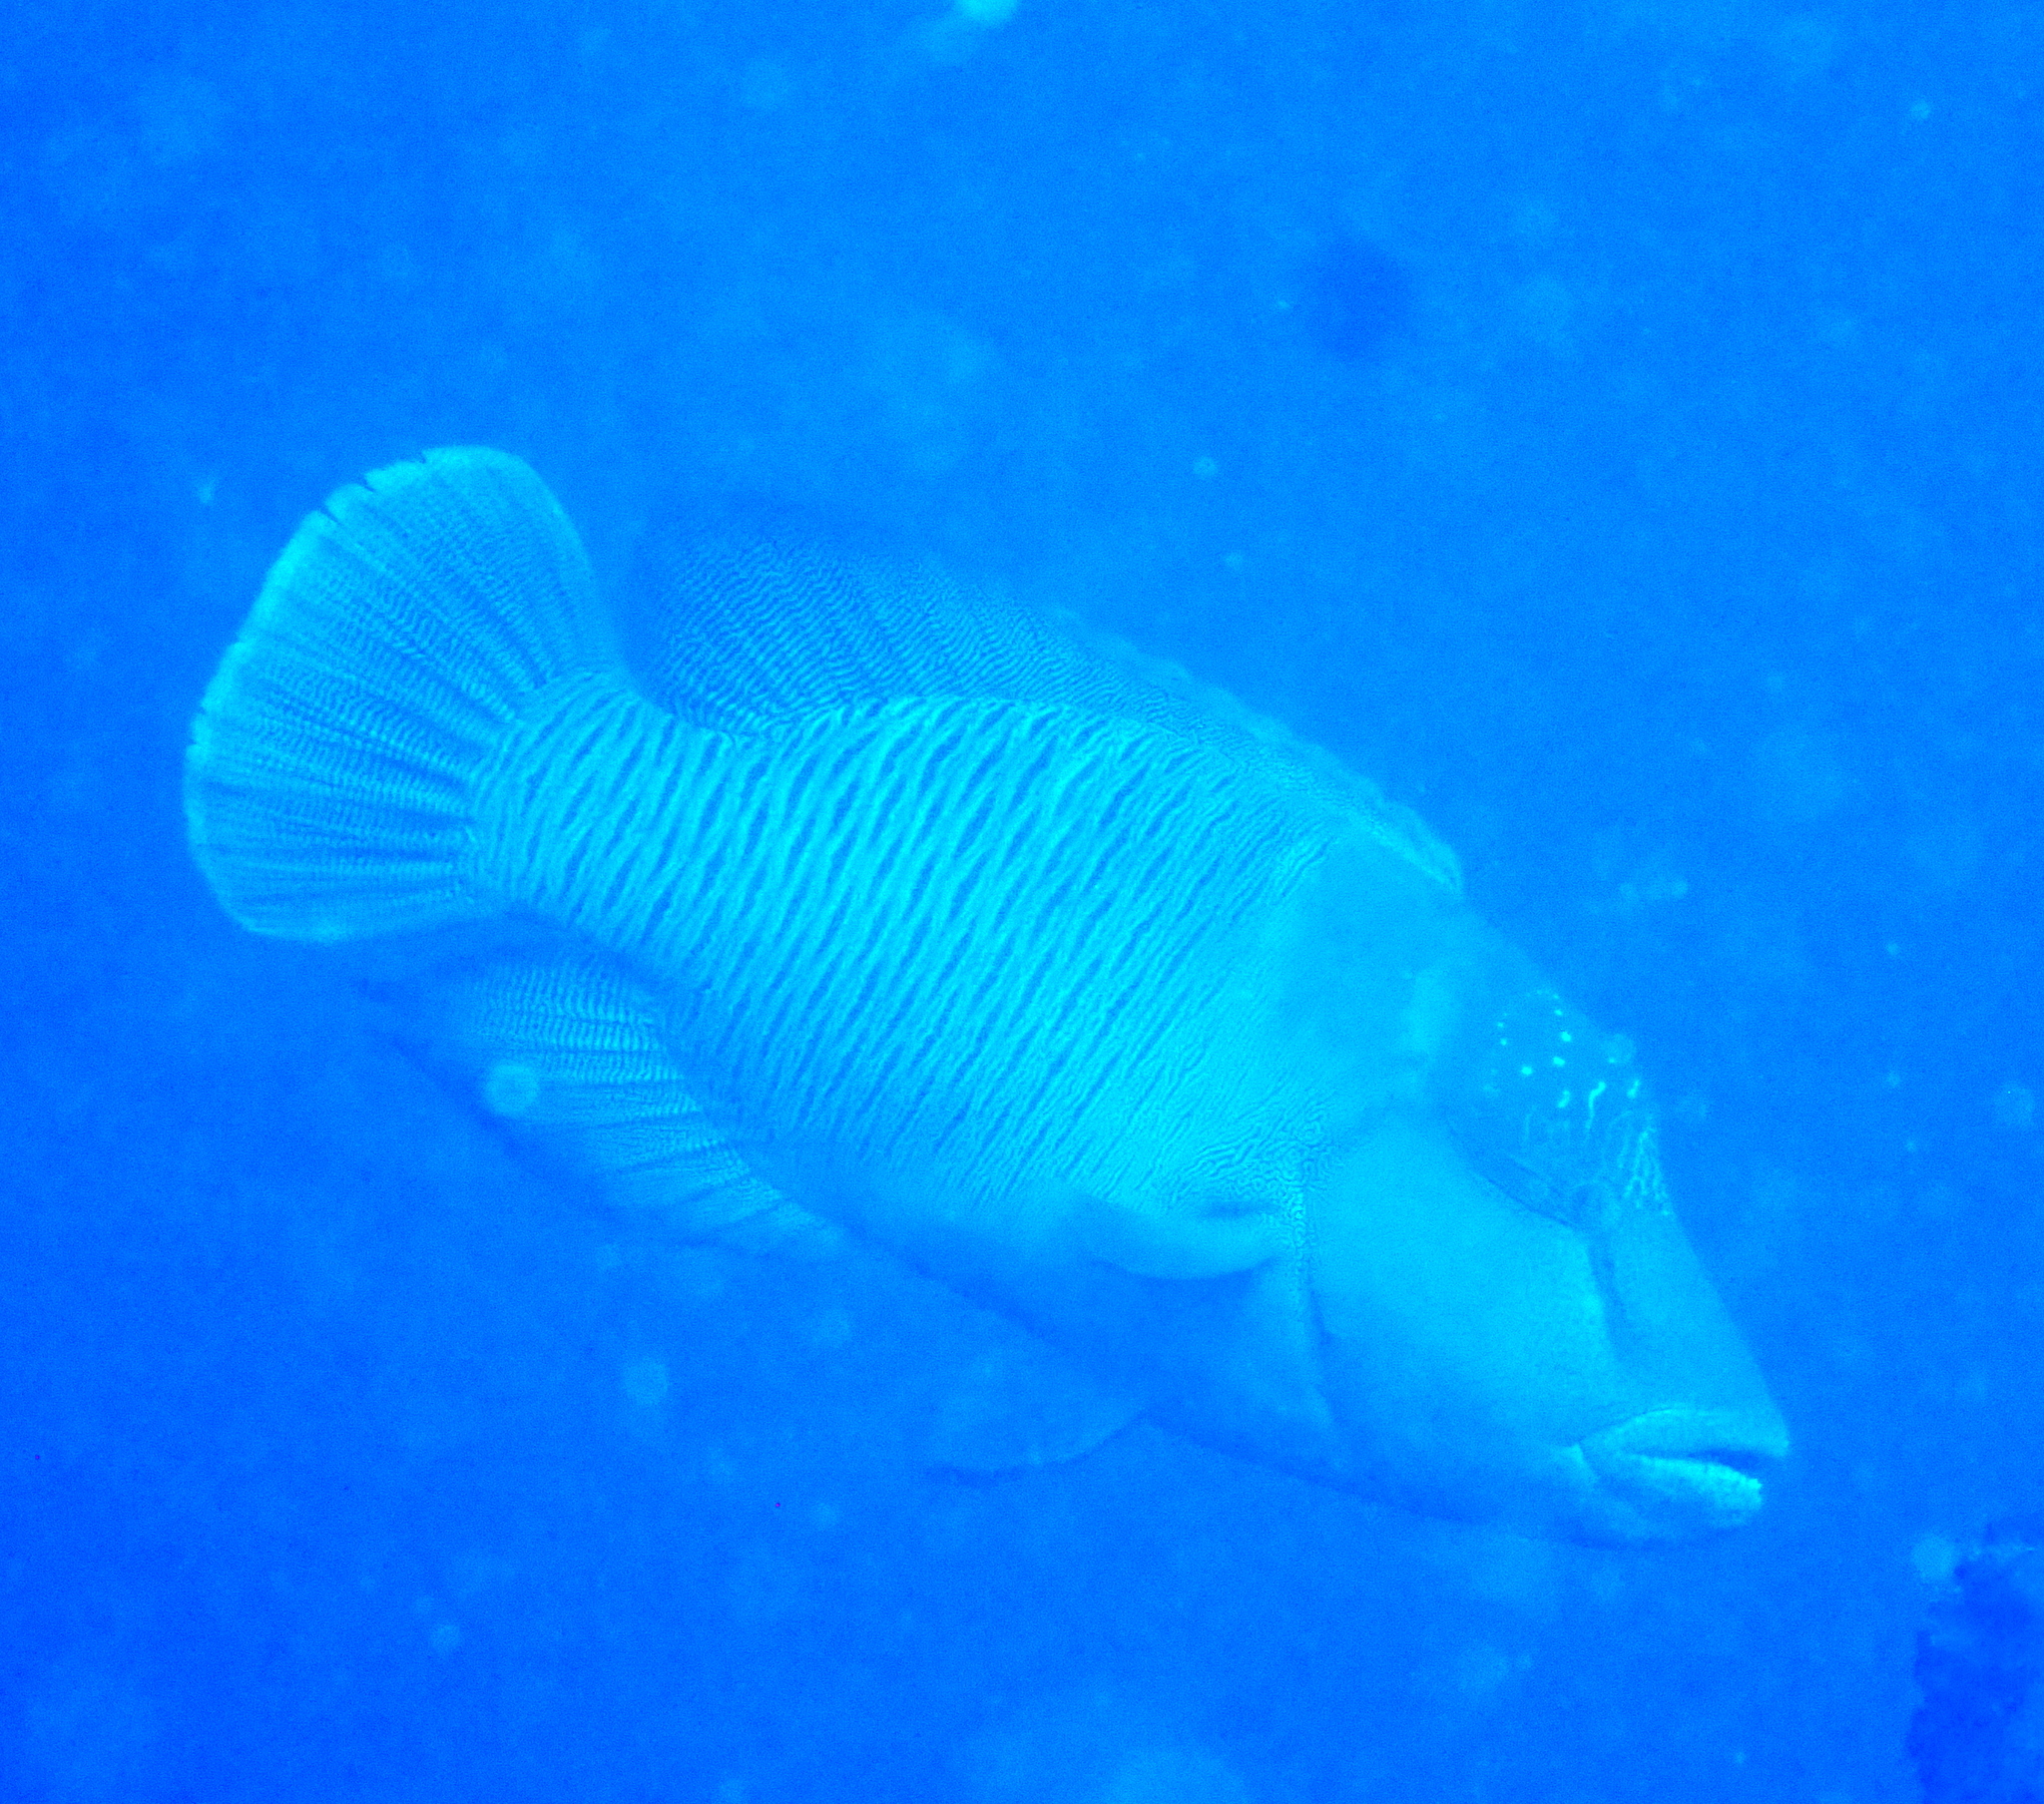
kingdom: Animalia
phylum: Chordata
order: Perciformes
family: Labridae
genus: Cheilinus
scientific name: Cheilinus undulatus
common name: Humphead wrasse
